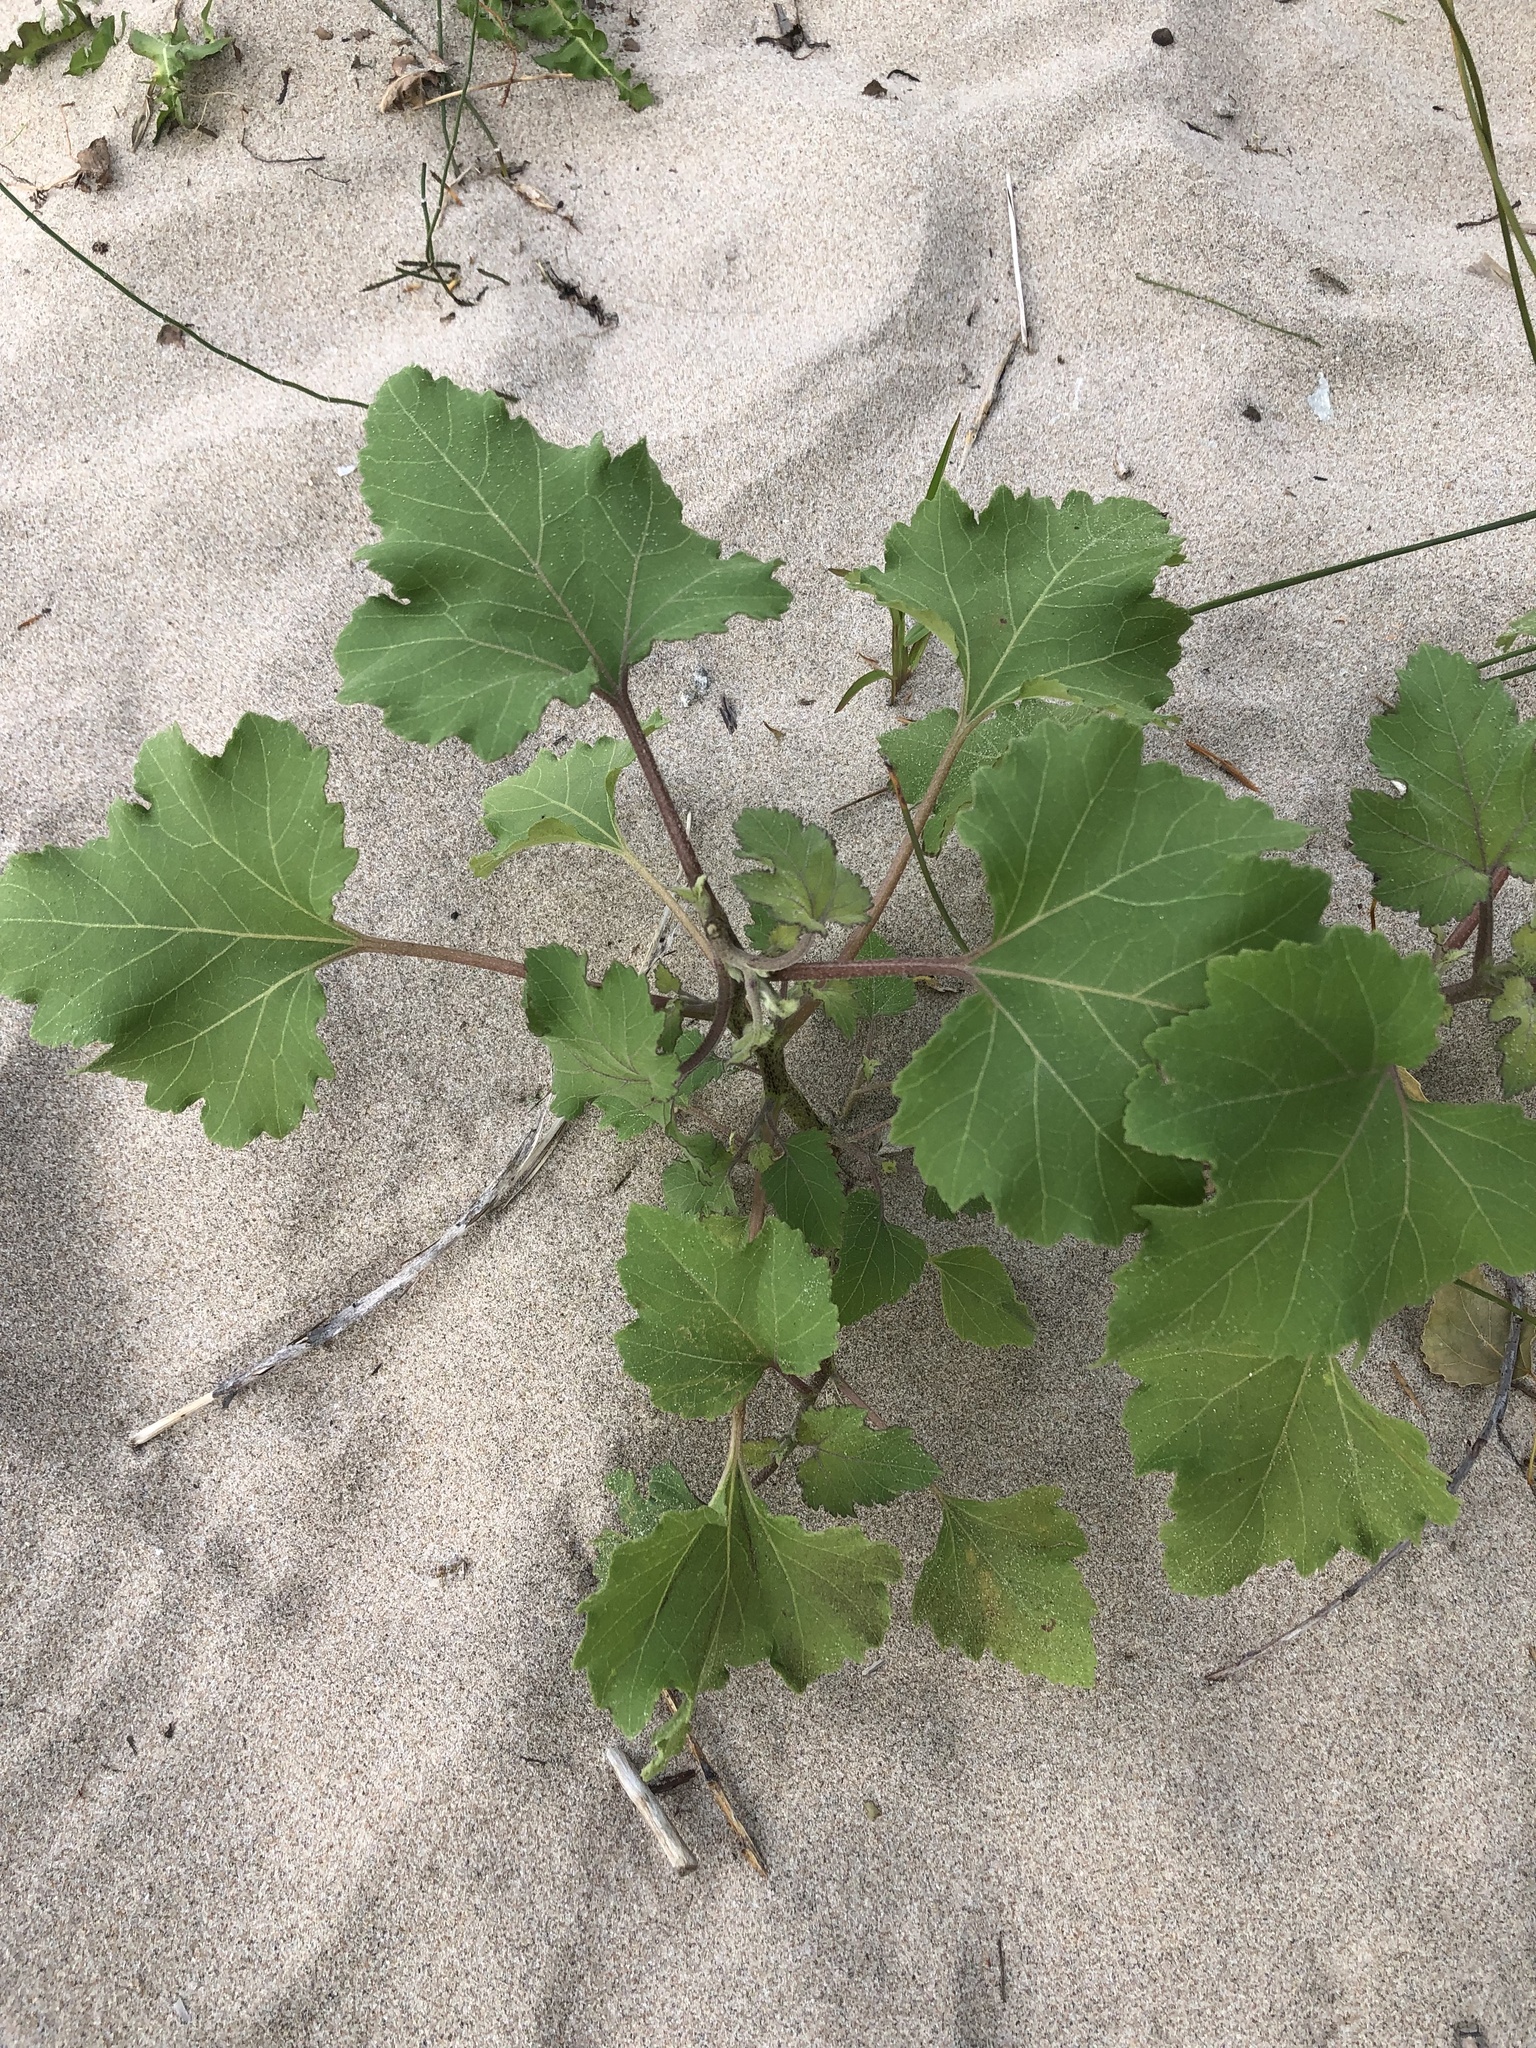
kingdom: Plantae
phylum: Tracheophyta
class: Magnoliopsida
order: Asterales
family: Asteraceae
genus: Xanthium
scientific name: Xanthium strumarium
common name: Rough cocklebur
